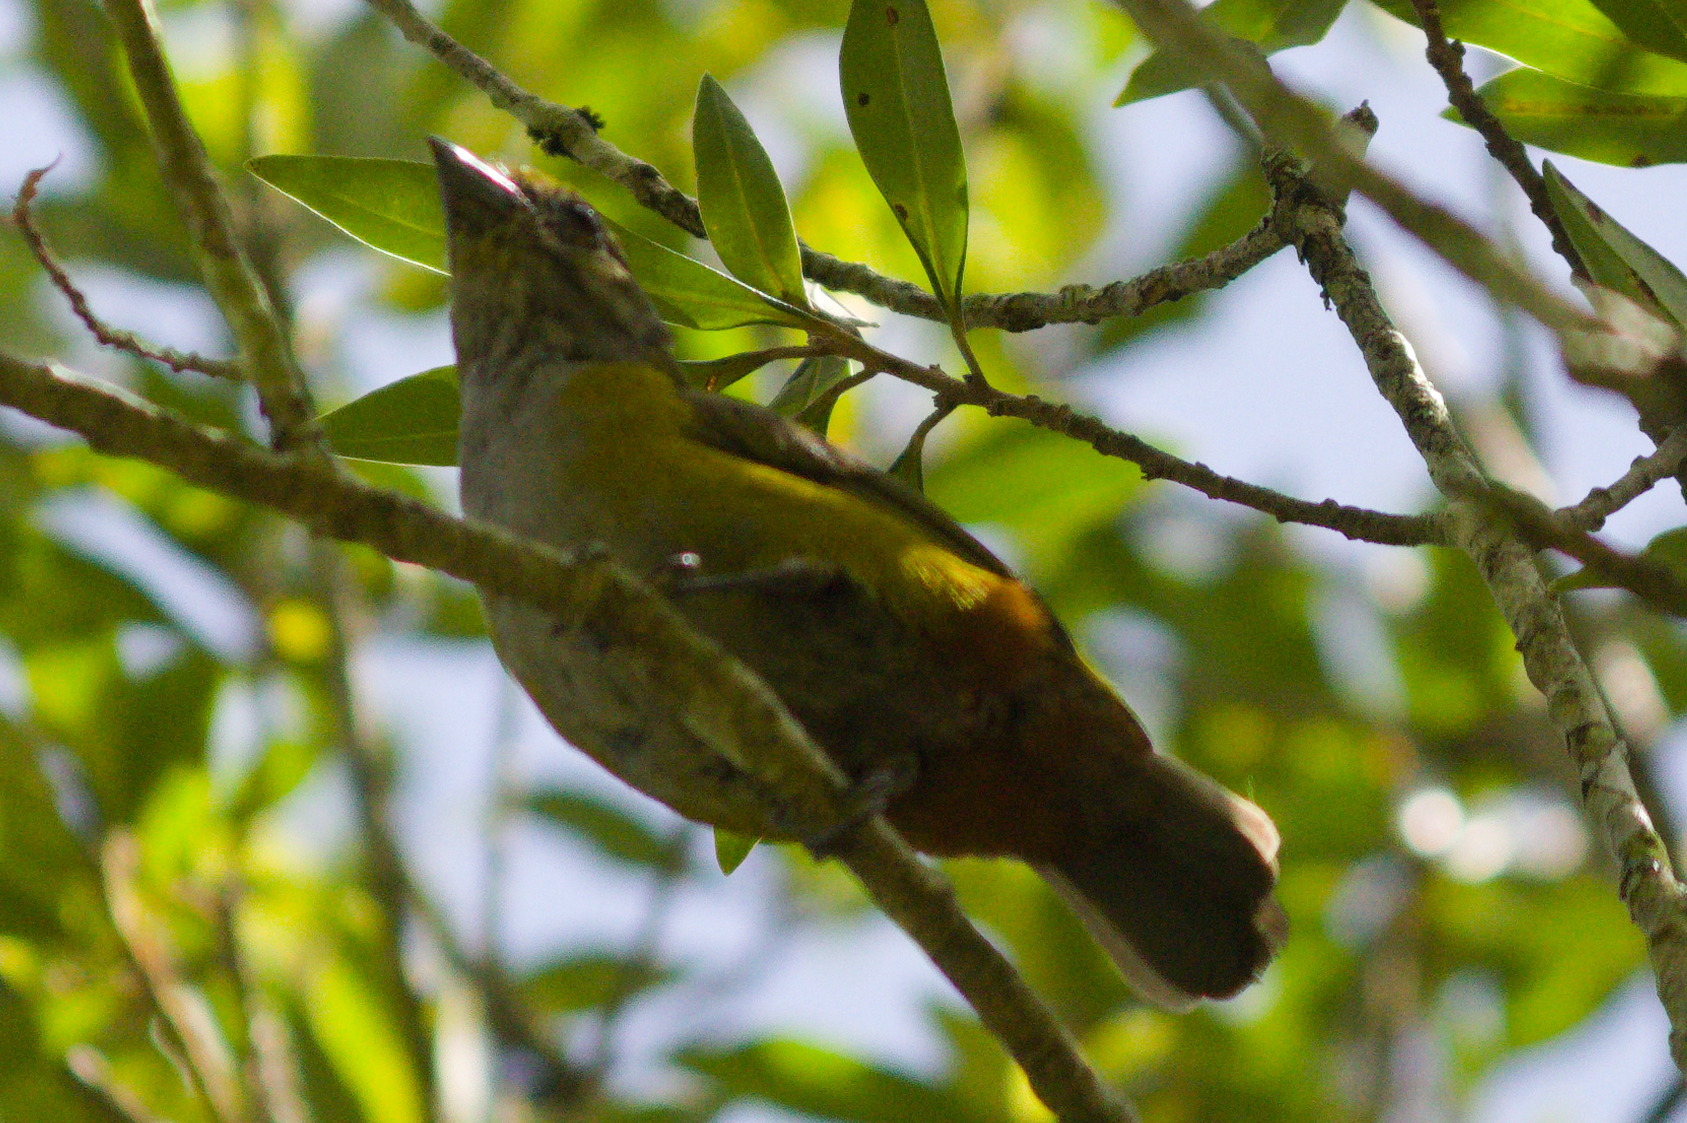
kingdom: Animalia
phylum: Chordata
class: Aves
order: Passeriformes
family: Fringillidae
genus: Euphonia
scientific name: Euphonia pectoralis
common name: Chestnut-bellied euphonia
